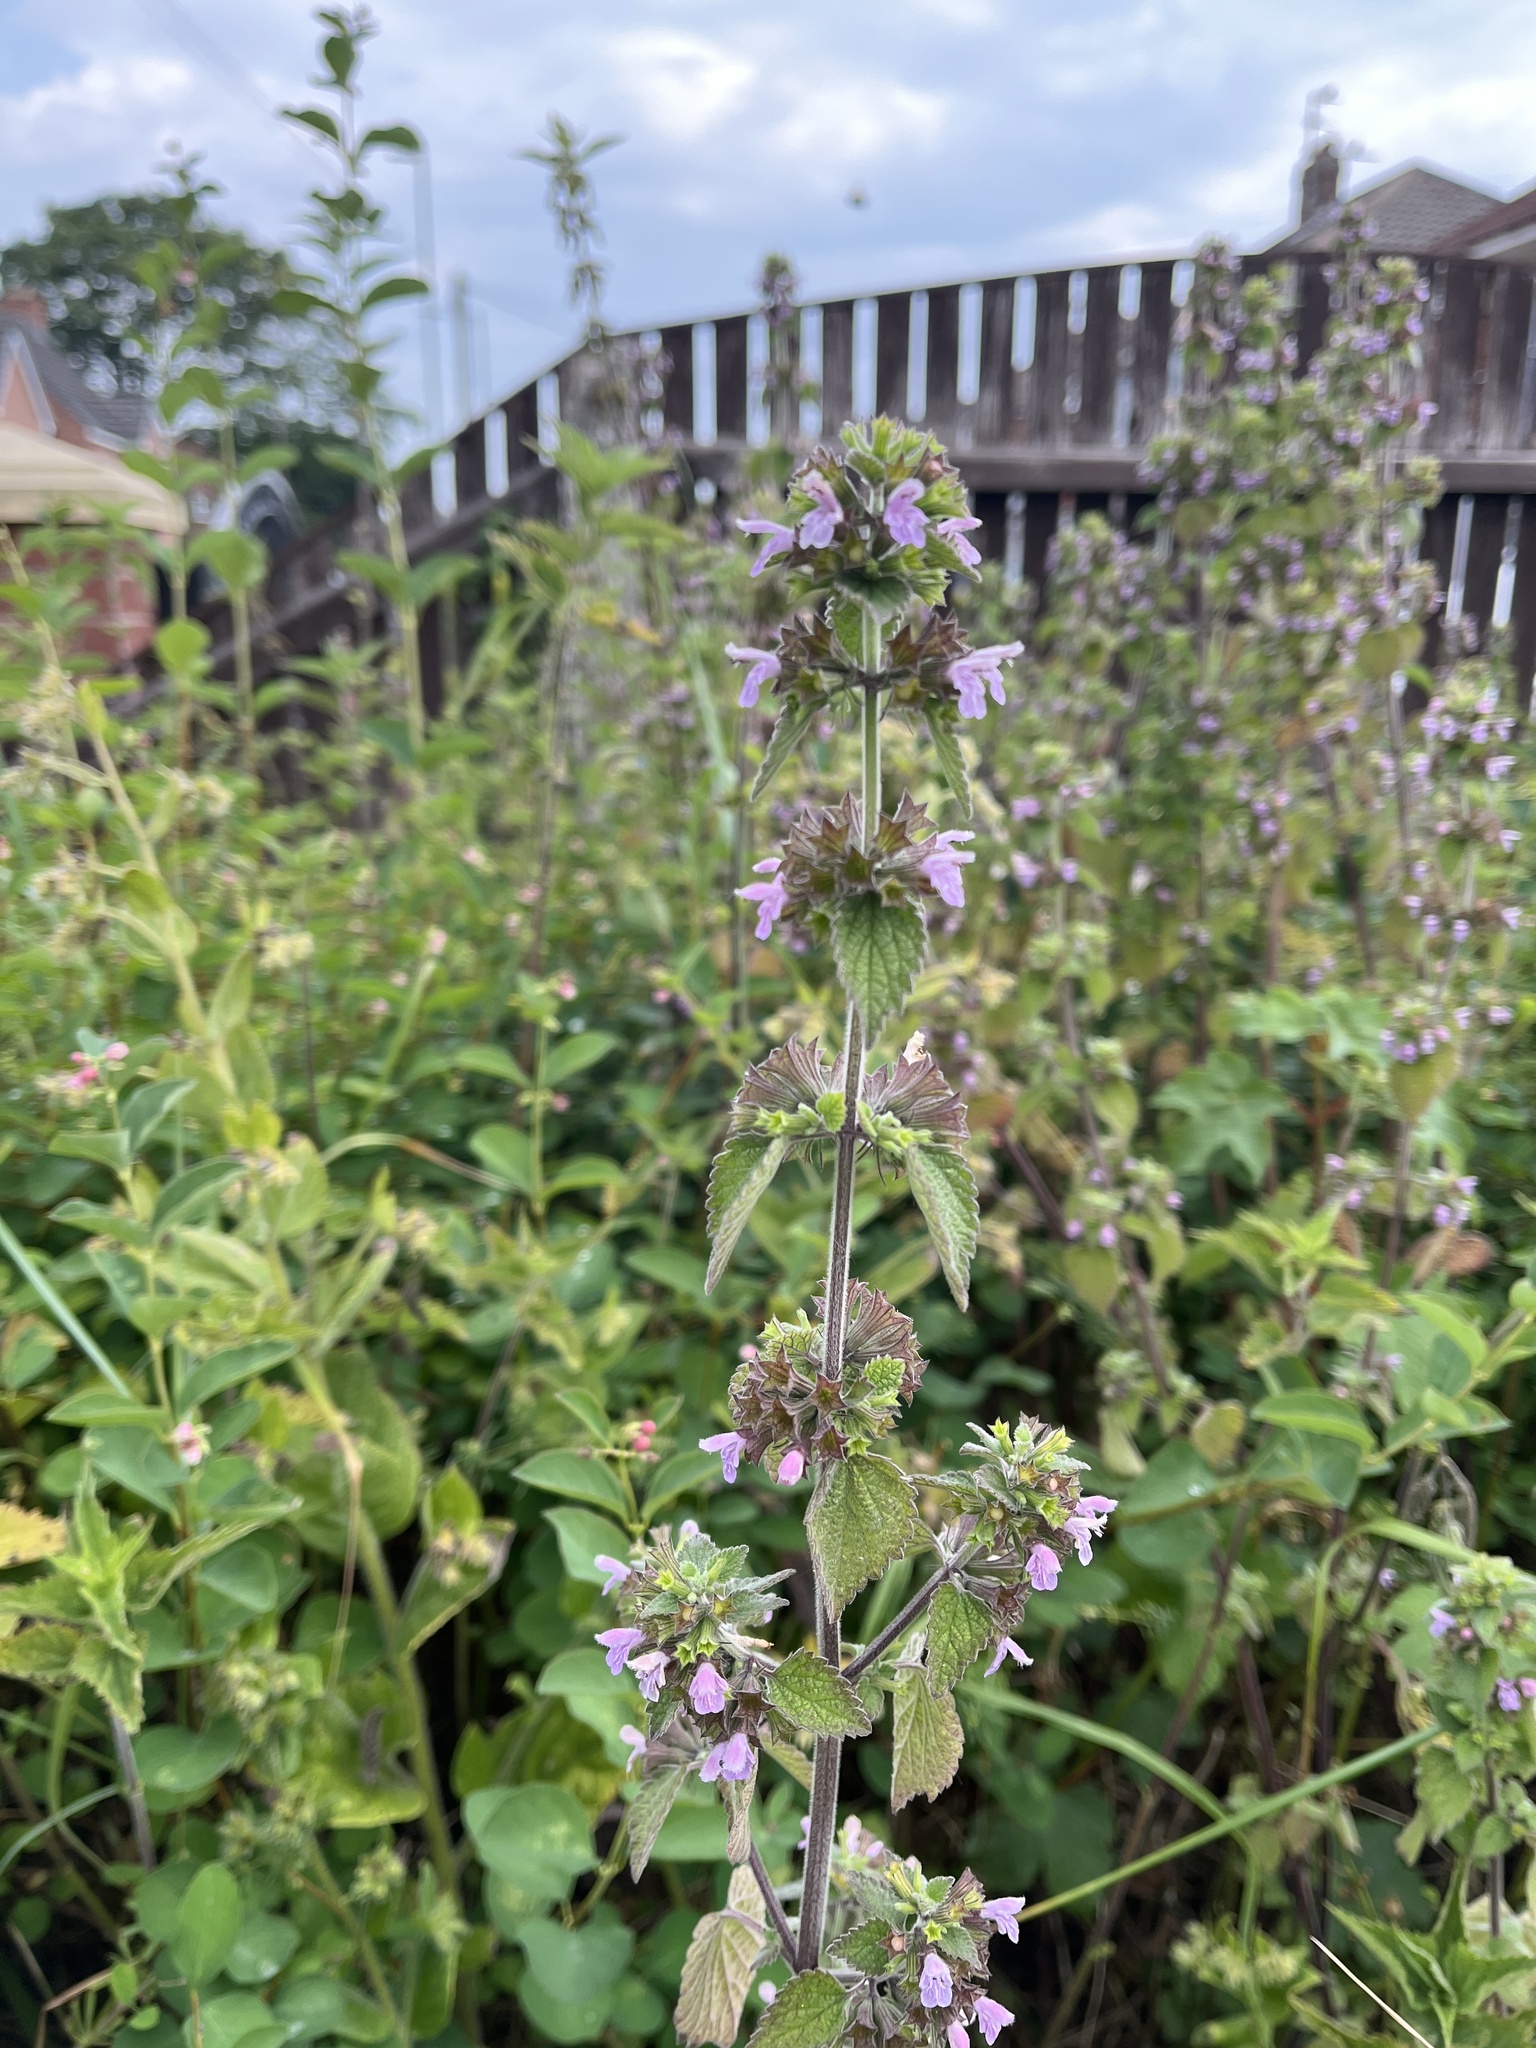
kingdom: Plantae
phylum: Tracheophyta
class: Magnoliopsida
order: Lamiales
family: Lamiaceae
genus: Ballota
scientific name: Ballota nigra
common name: Black horehound
